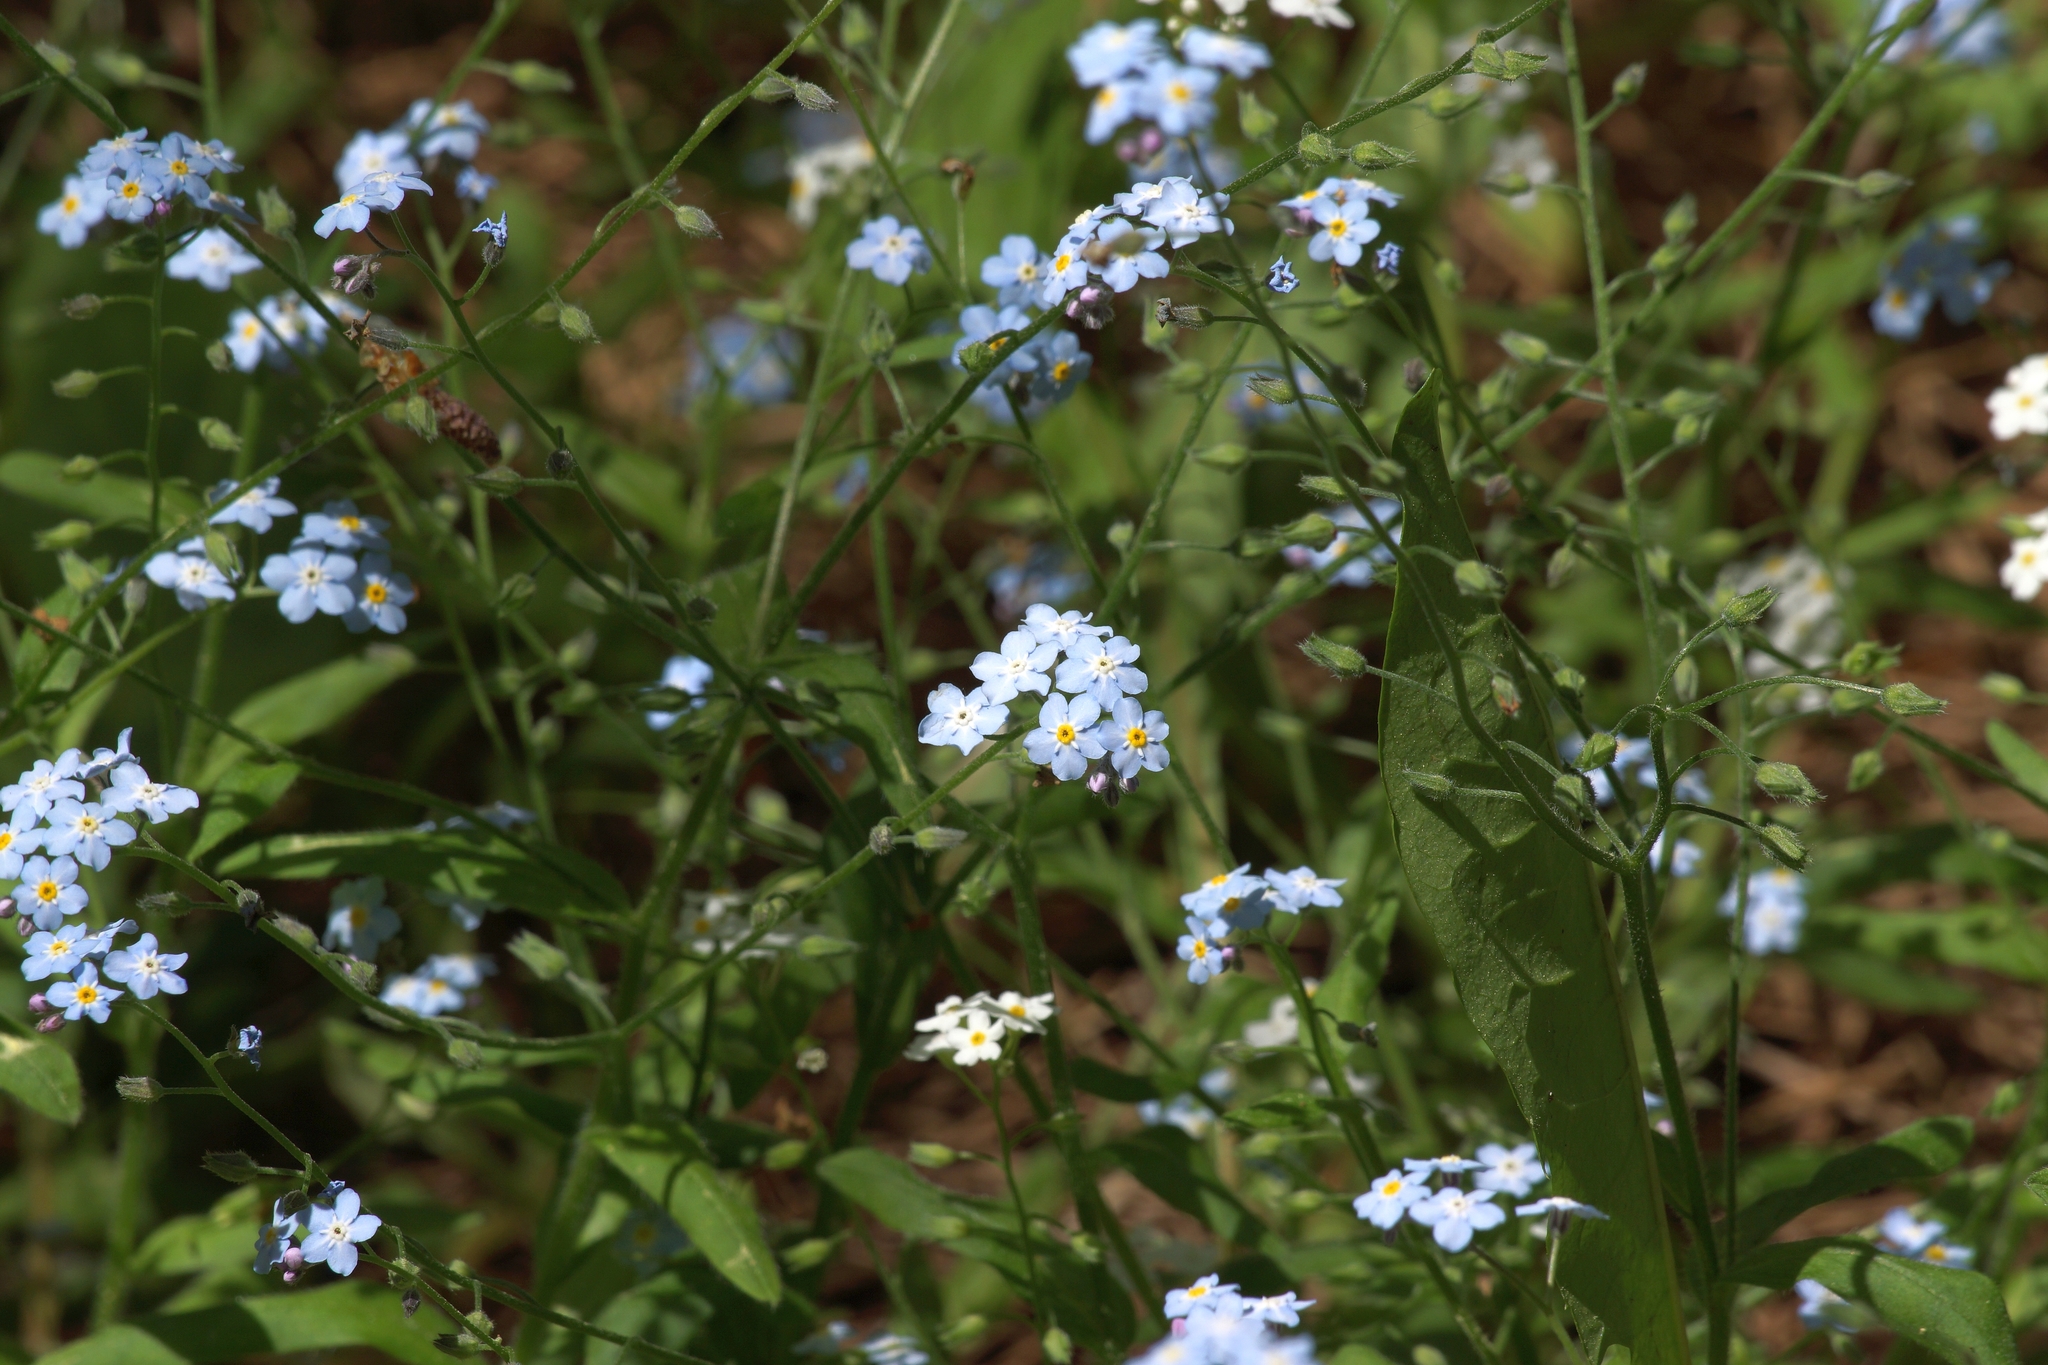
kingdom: Plantae
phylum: Tracheophyta
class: Magnoliopsida
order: Boraginales
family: Boraginaceae
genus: Myosotis
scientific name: Myosotis sylvatica
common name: Wood forget-me-not
